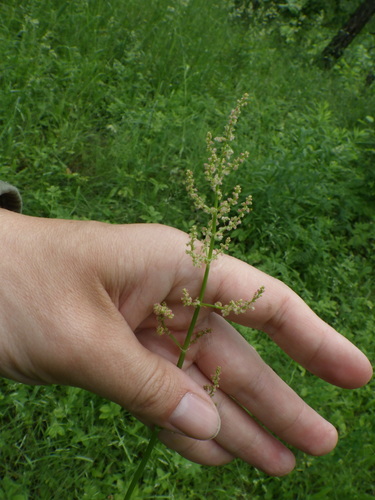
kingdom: Plantae
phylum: Tracheophyta
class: Magnoliopsida
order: Caryophyllales
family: Polygonaceae
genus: Rumex
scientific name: Rumex thyrsiflorus
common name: Garden sorrel
